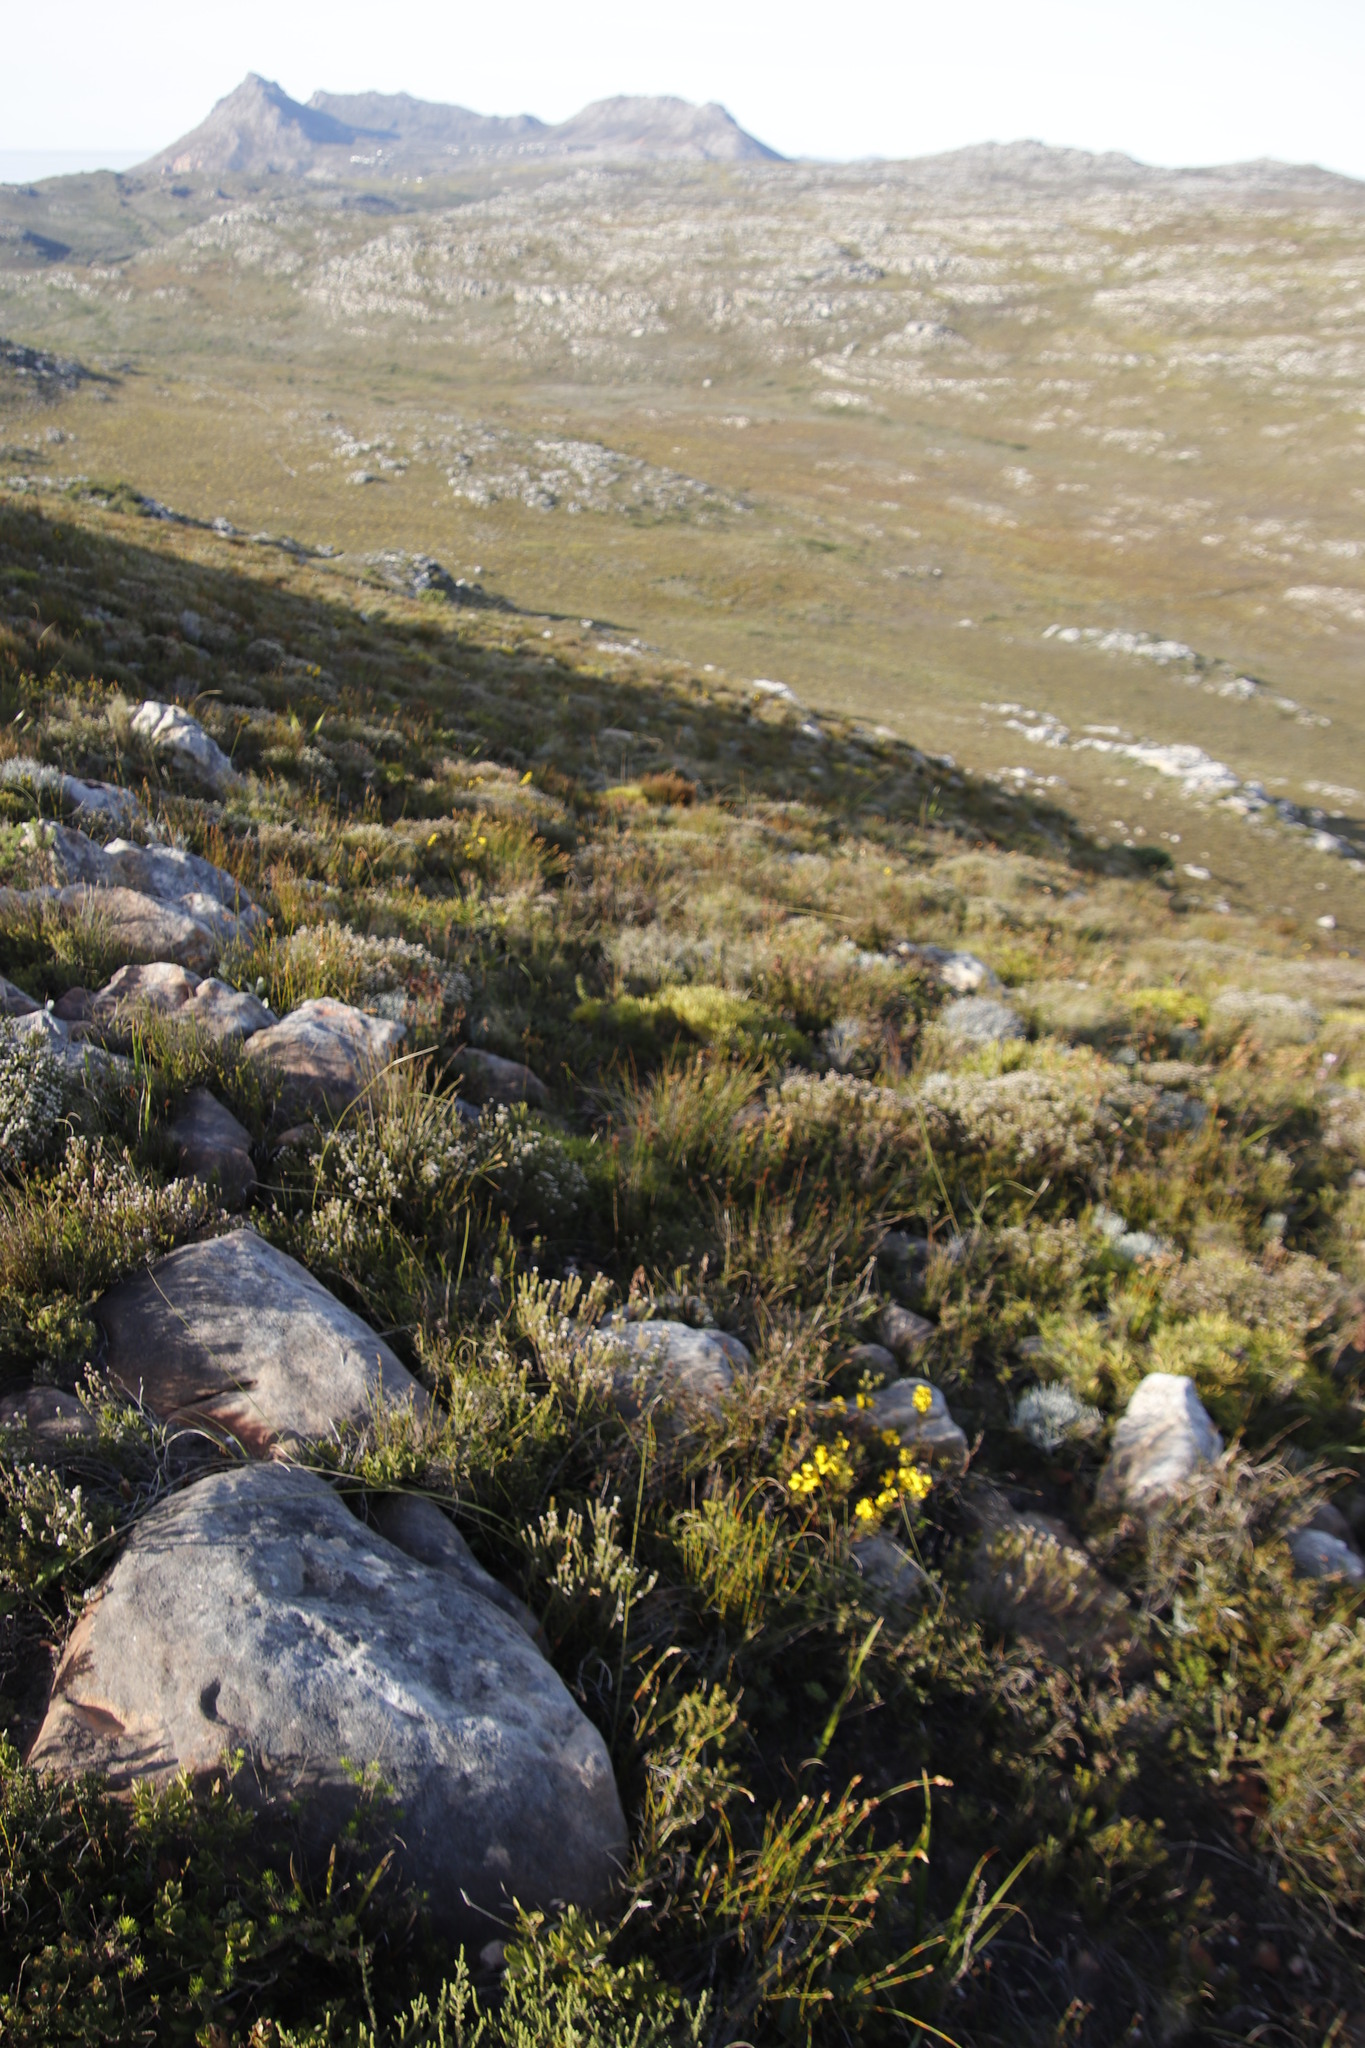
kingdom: Plantae
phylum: Tracheophyta
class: Magnoliopsida
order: Fabales
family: Fabaceae
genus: Cyclopia
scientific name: Cyclopia galioides
